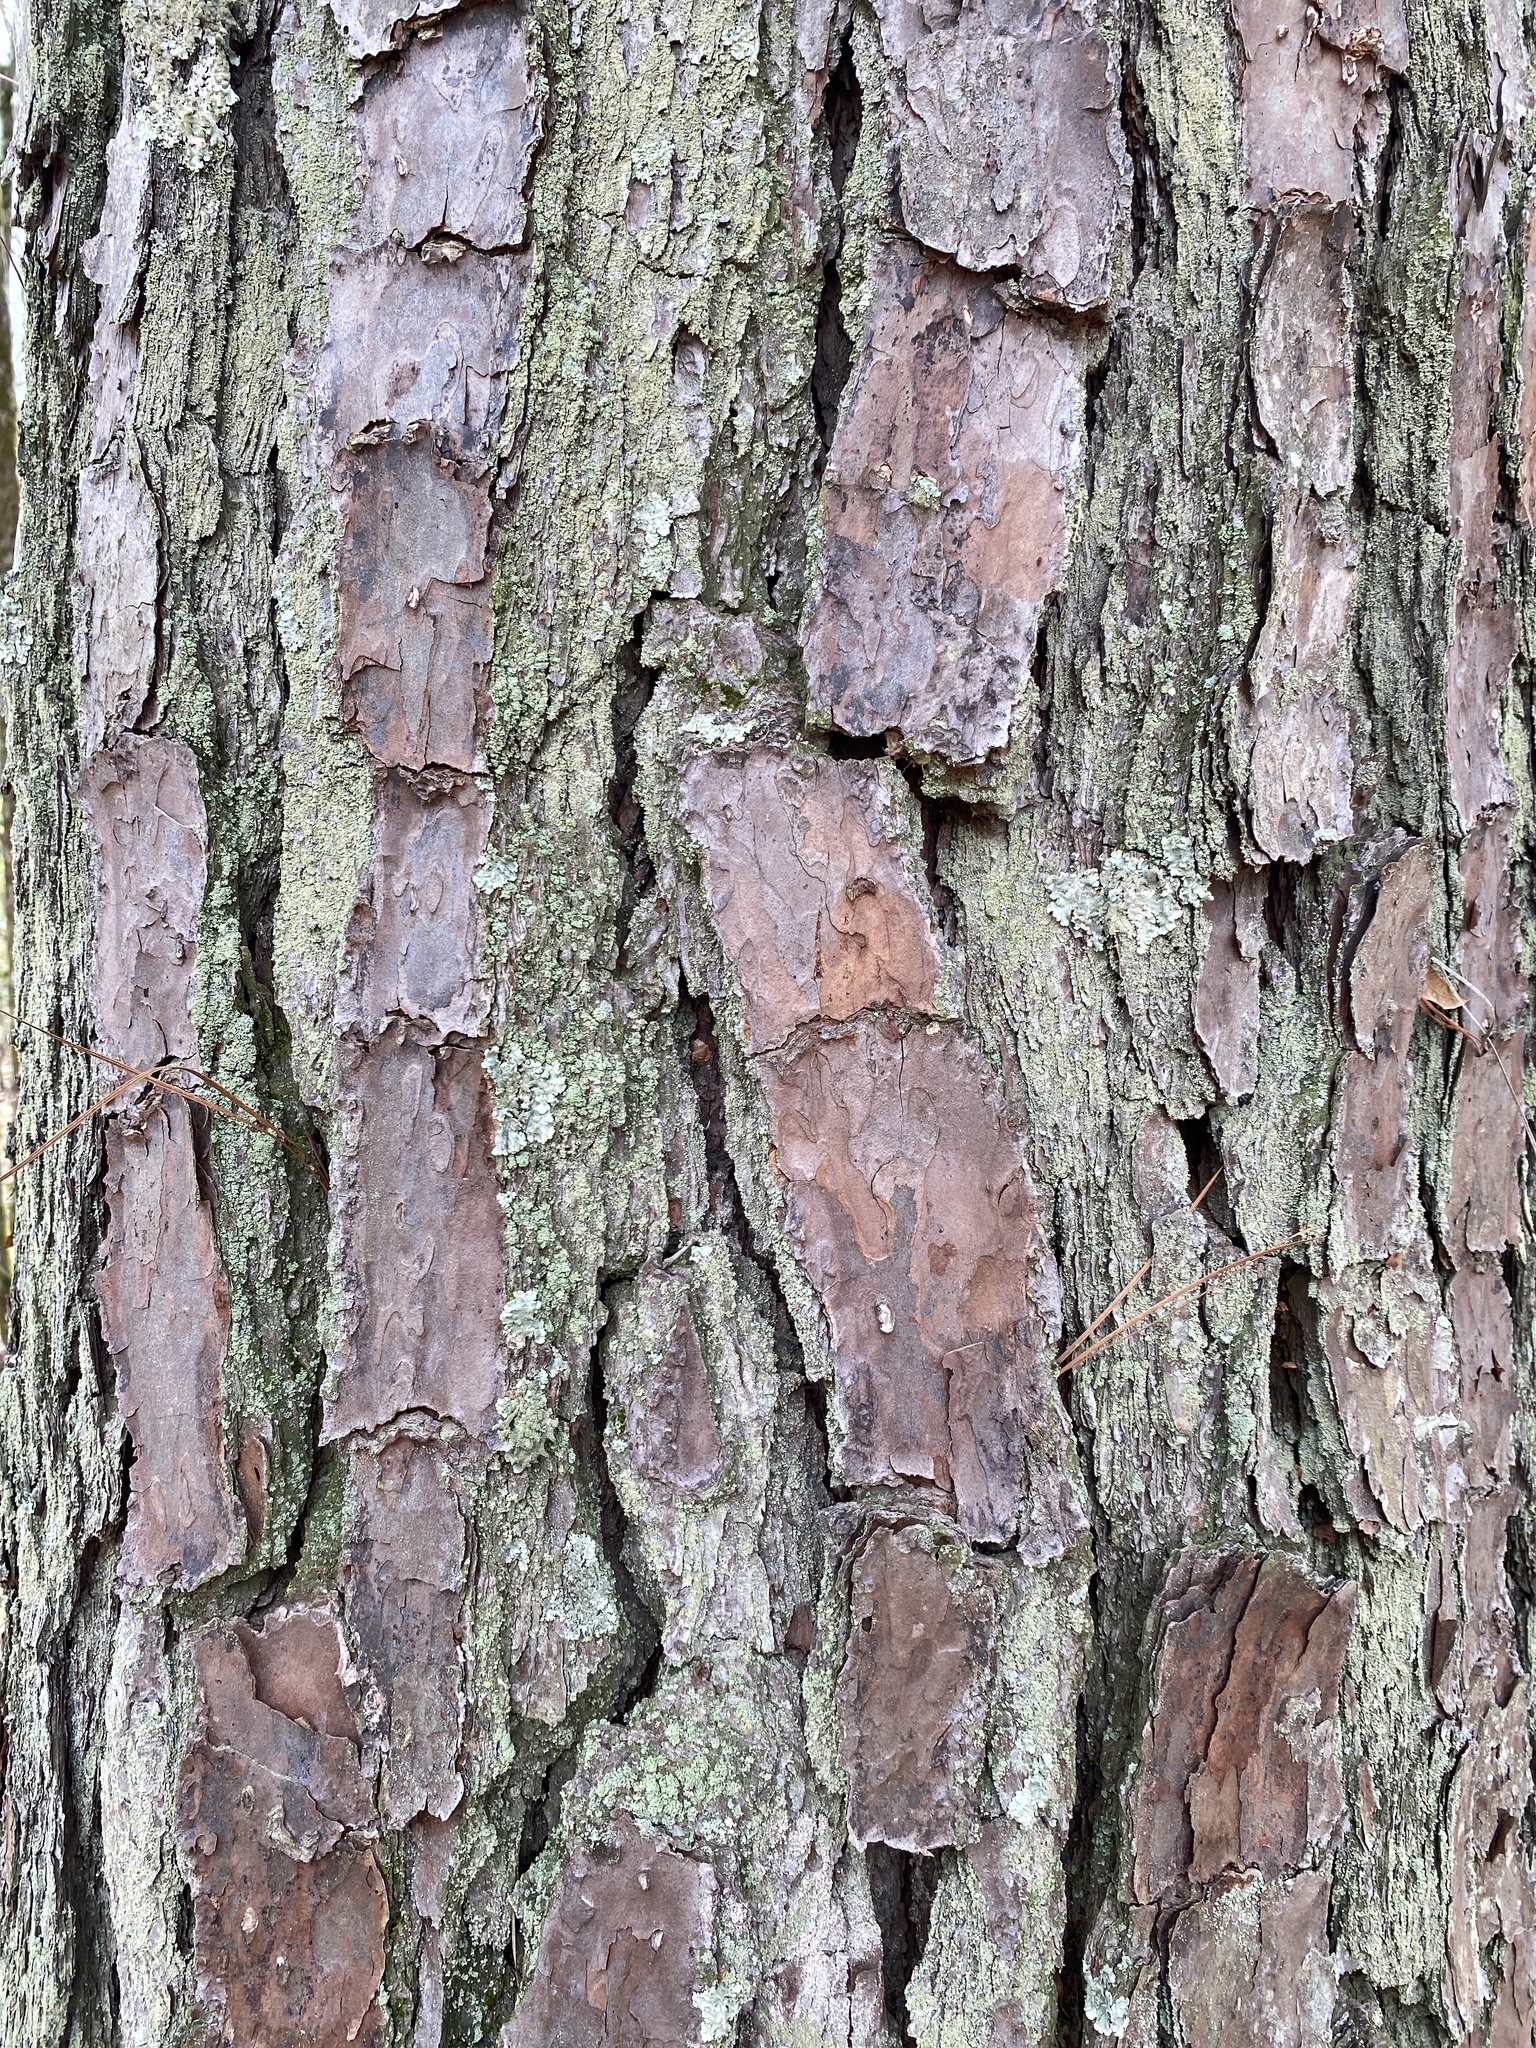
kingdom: Plantae
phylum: Tracheophyta
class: Pinopsida
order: Pinales
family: Pinaceae
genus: Pinus
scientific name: Pinus taeda
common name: Loblolly pine
